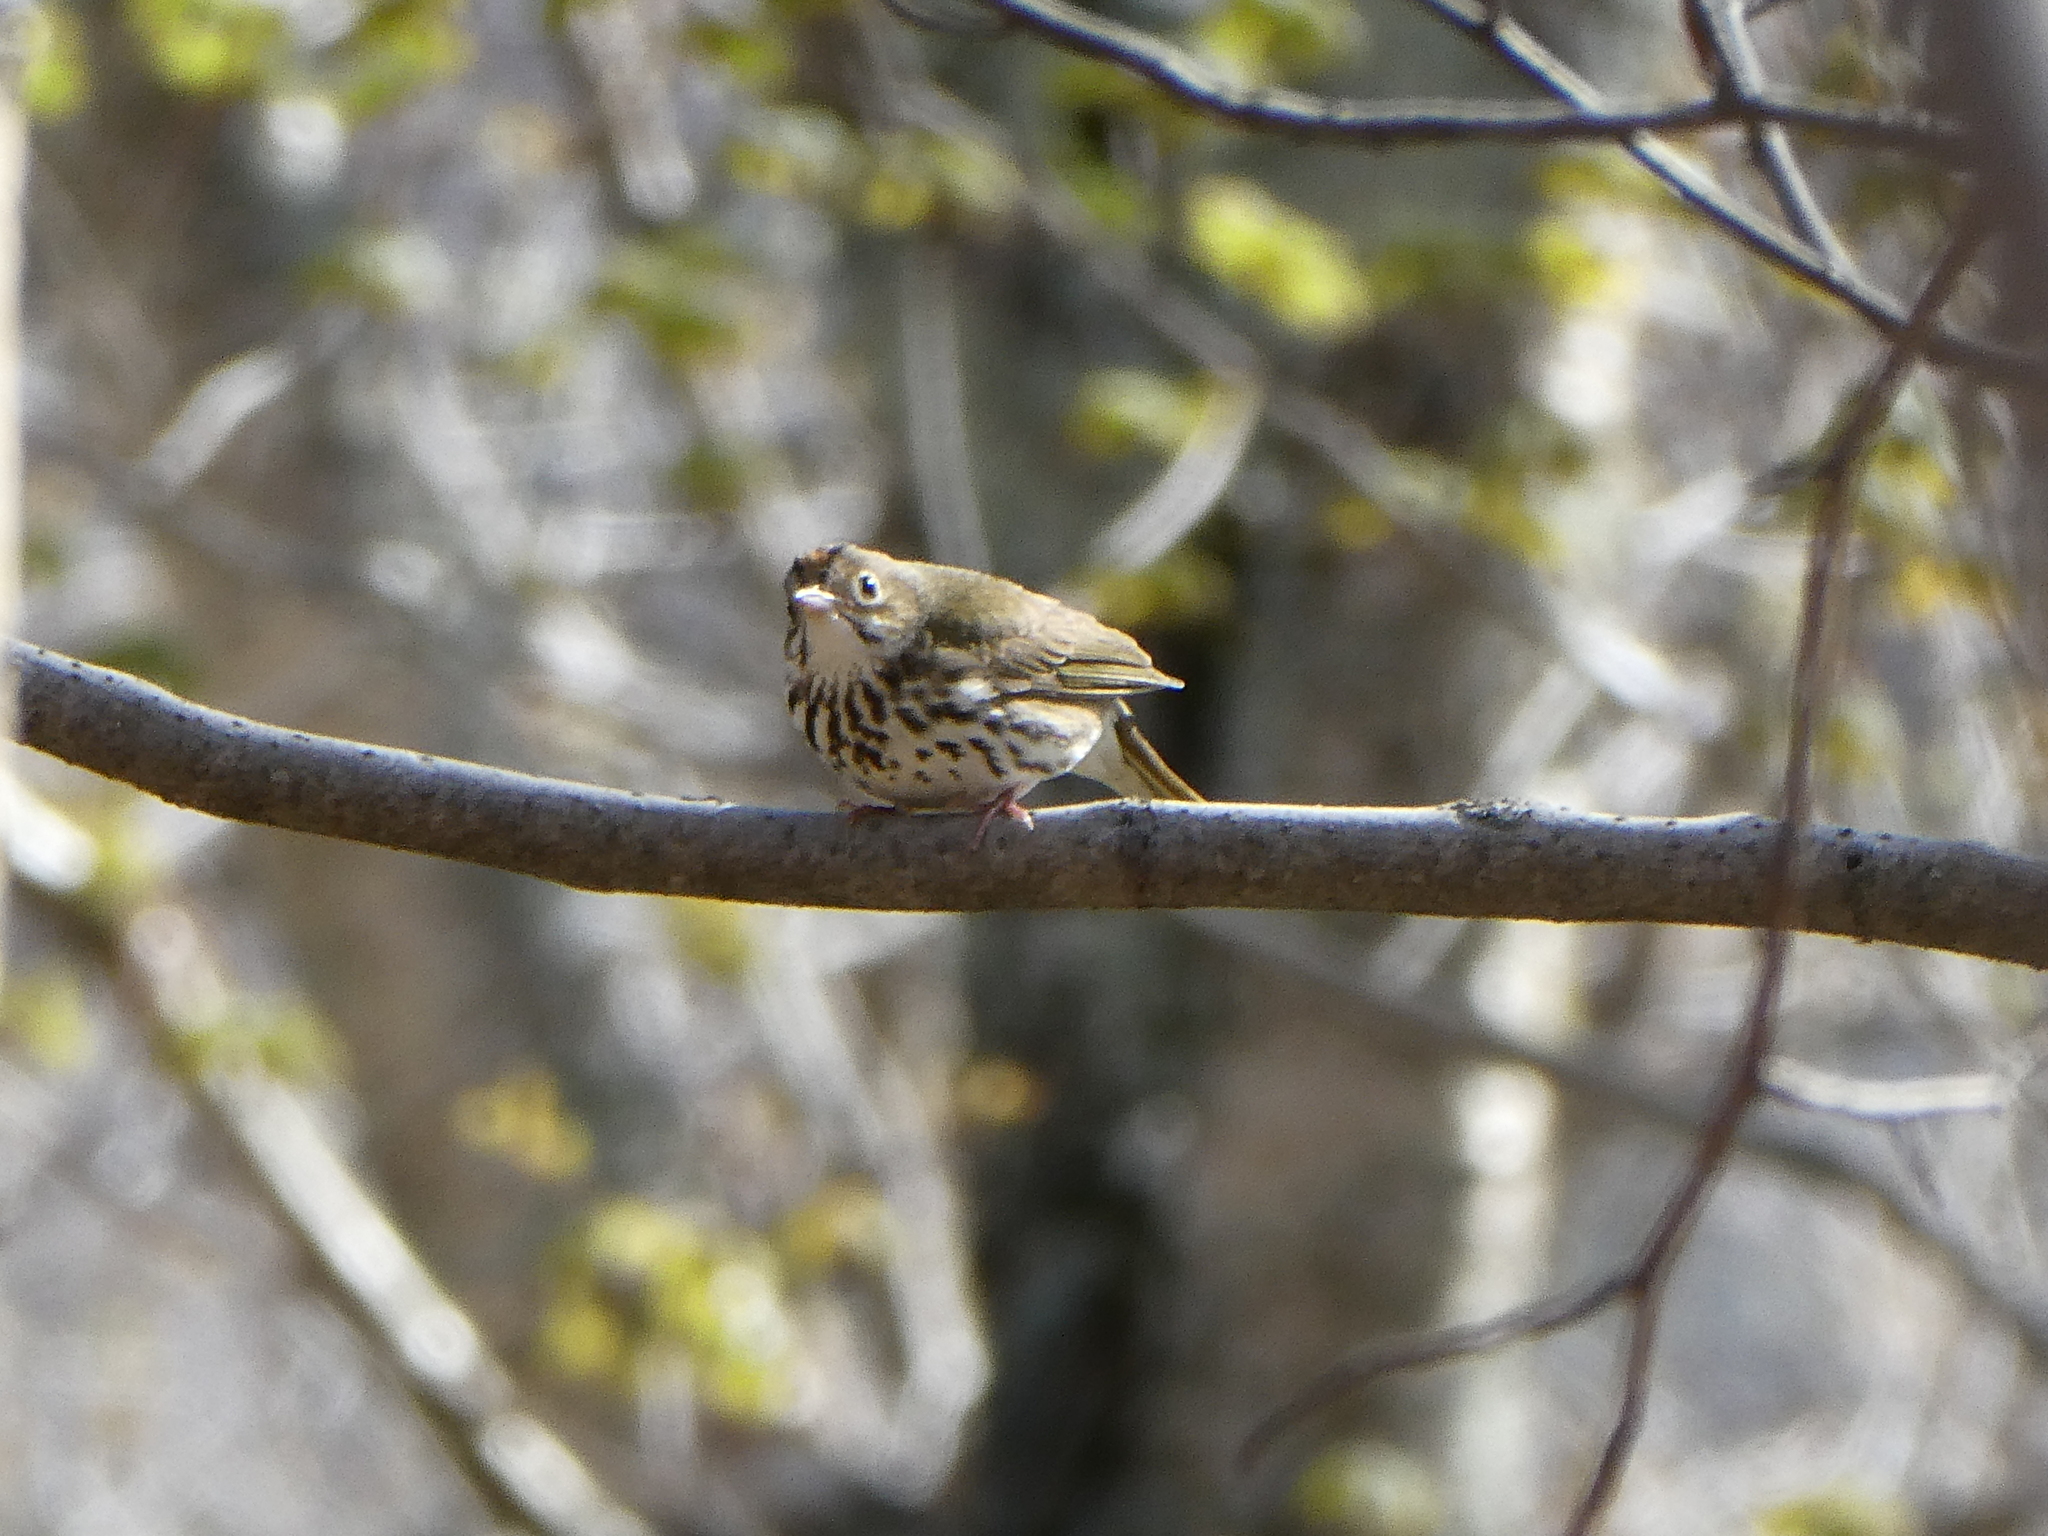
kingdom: Animalia
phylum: Chordata
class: Aves
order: Passeriformes
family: Parulidae
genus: Seiurus
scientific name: Seiurus aurocapilla
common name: Ovenbird
